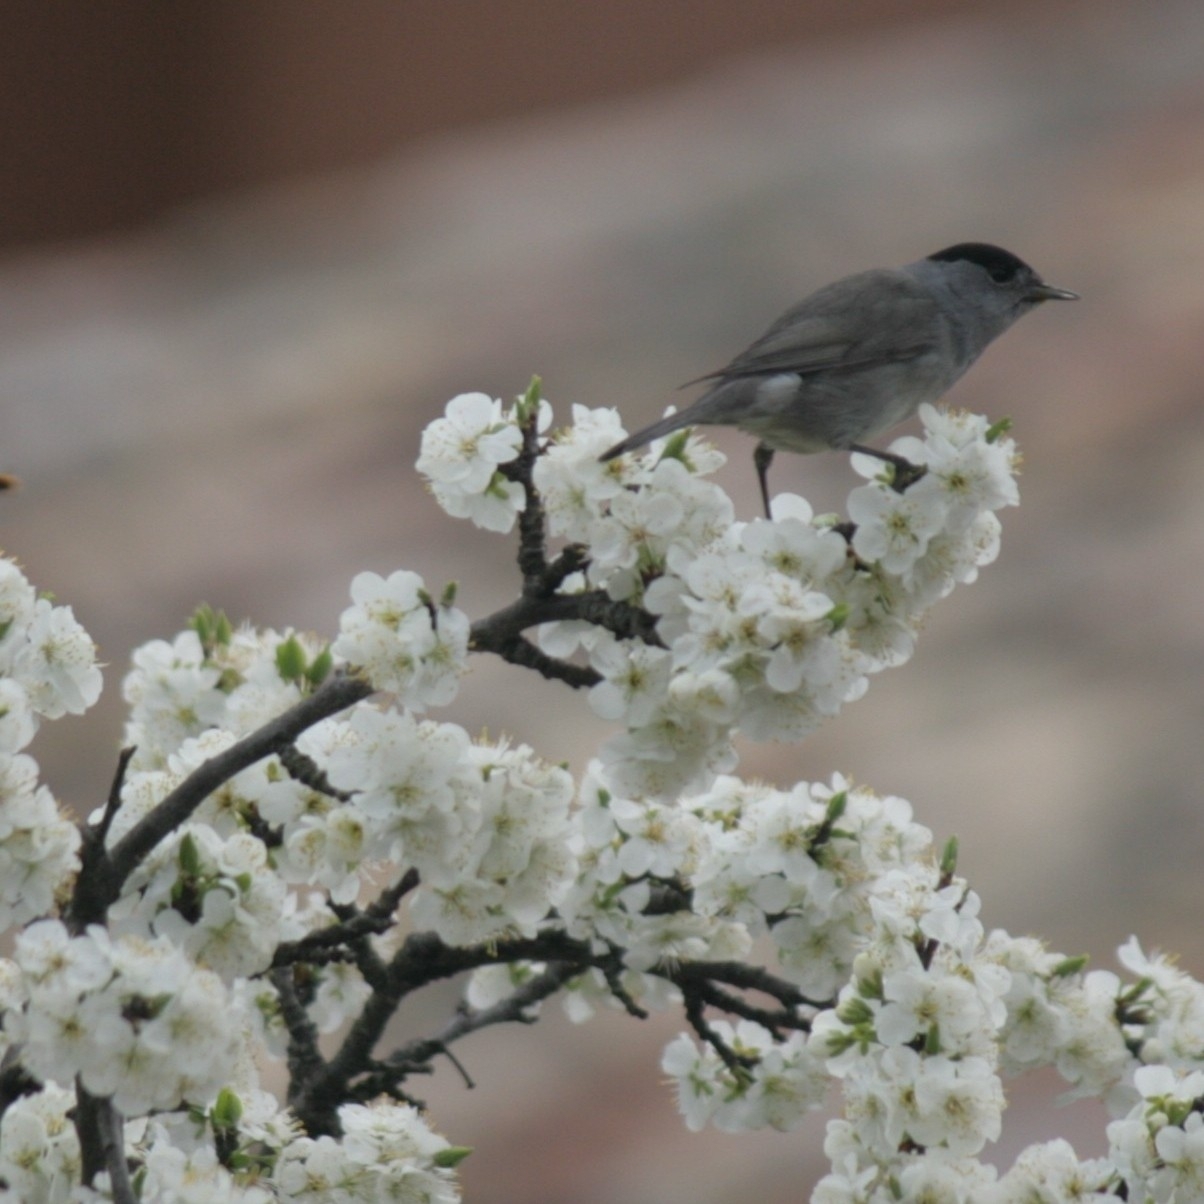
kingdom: Animalia
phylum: Chordata
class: Aves
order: Passeriformes
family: Sylviidae
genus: Sylvia
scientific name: Sylvia atricapilla
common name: Eurasian blackcap
